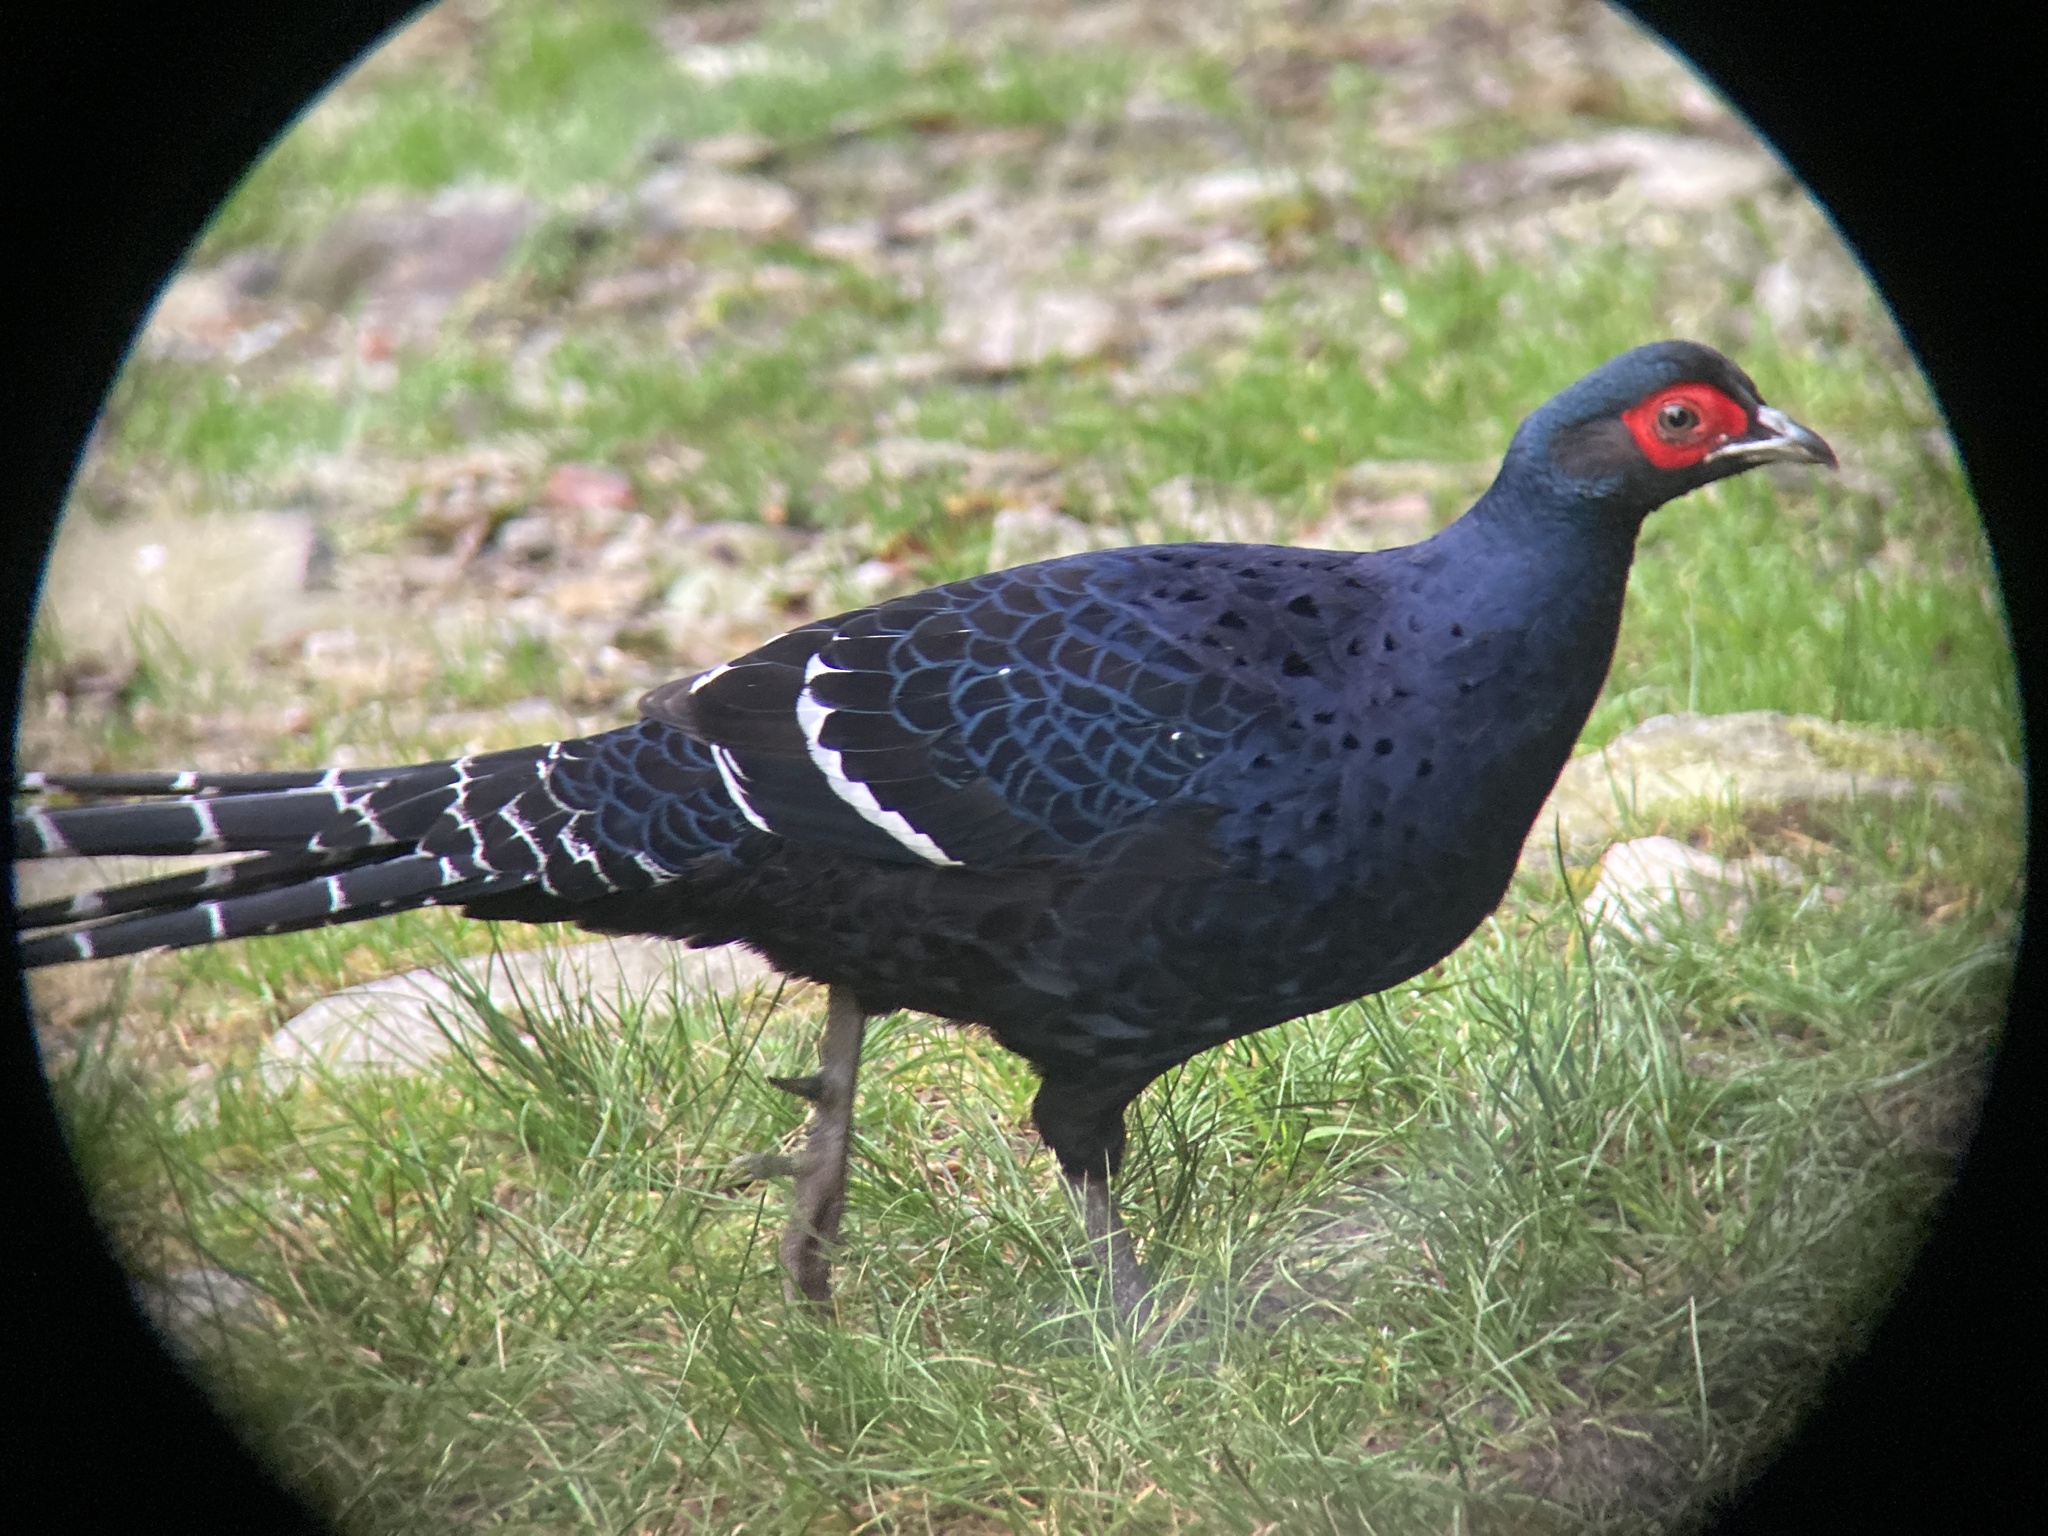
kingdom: Animalia
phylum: Chordata
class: Aves
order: Galliformes
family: Phasianidae
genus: Syrmaticus
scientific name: Syrmaticus mikado
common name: Mikado pheasant
